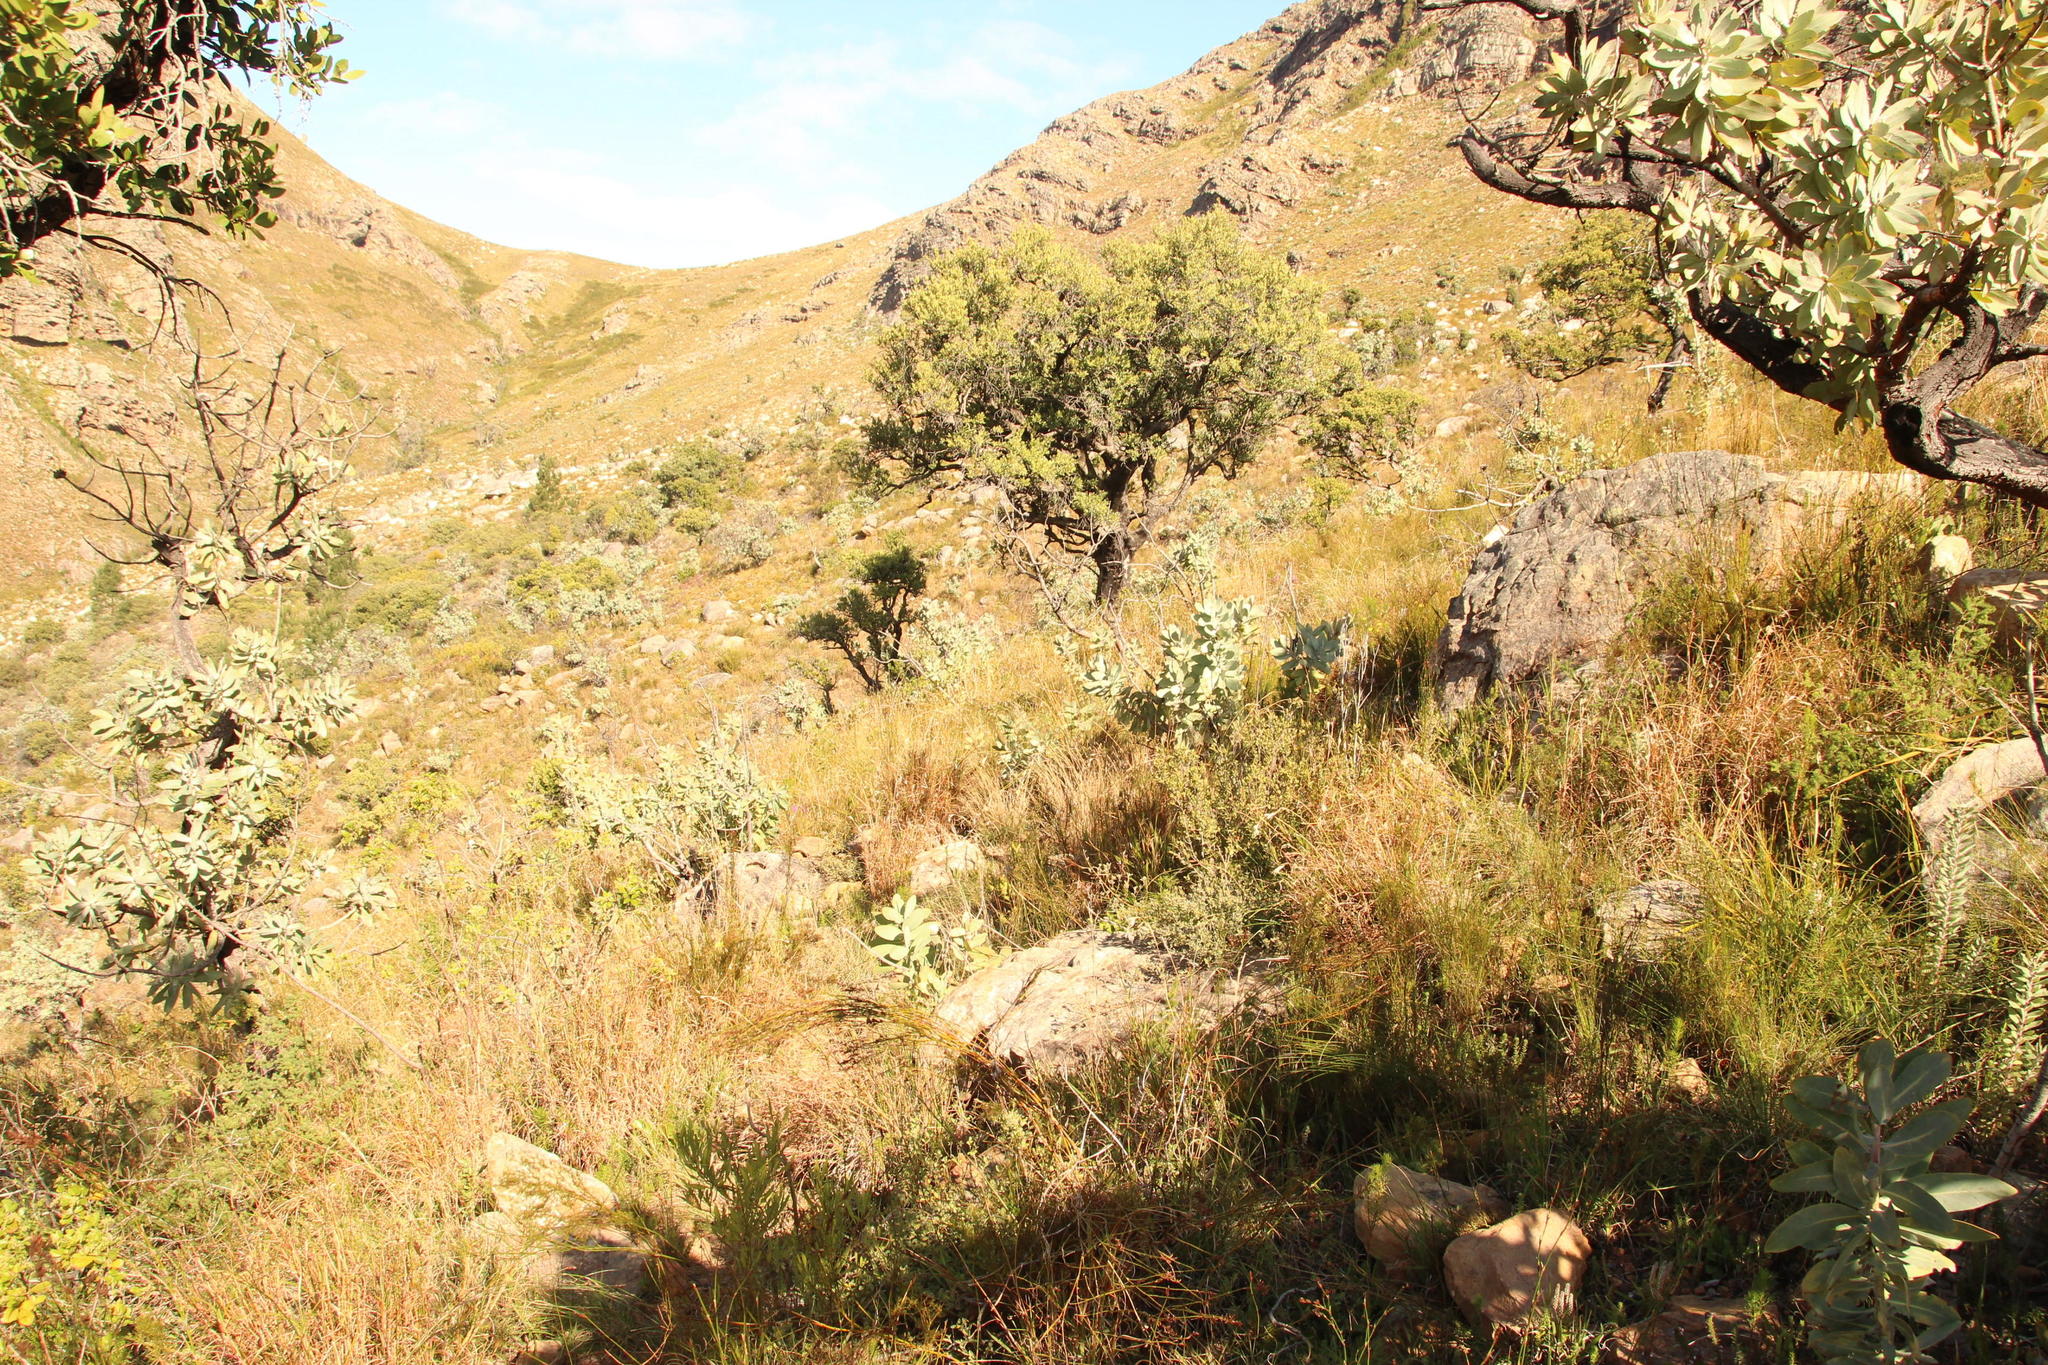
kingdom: Plantae
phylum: Tracheophyta
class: Magnoliopsida
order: Proteales
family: Proteaceae
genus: Protea
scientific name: Protea nitida
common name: Tree protea
